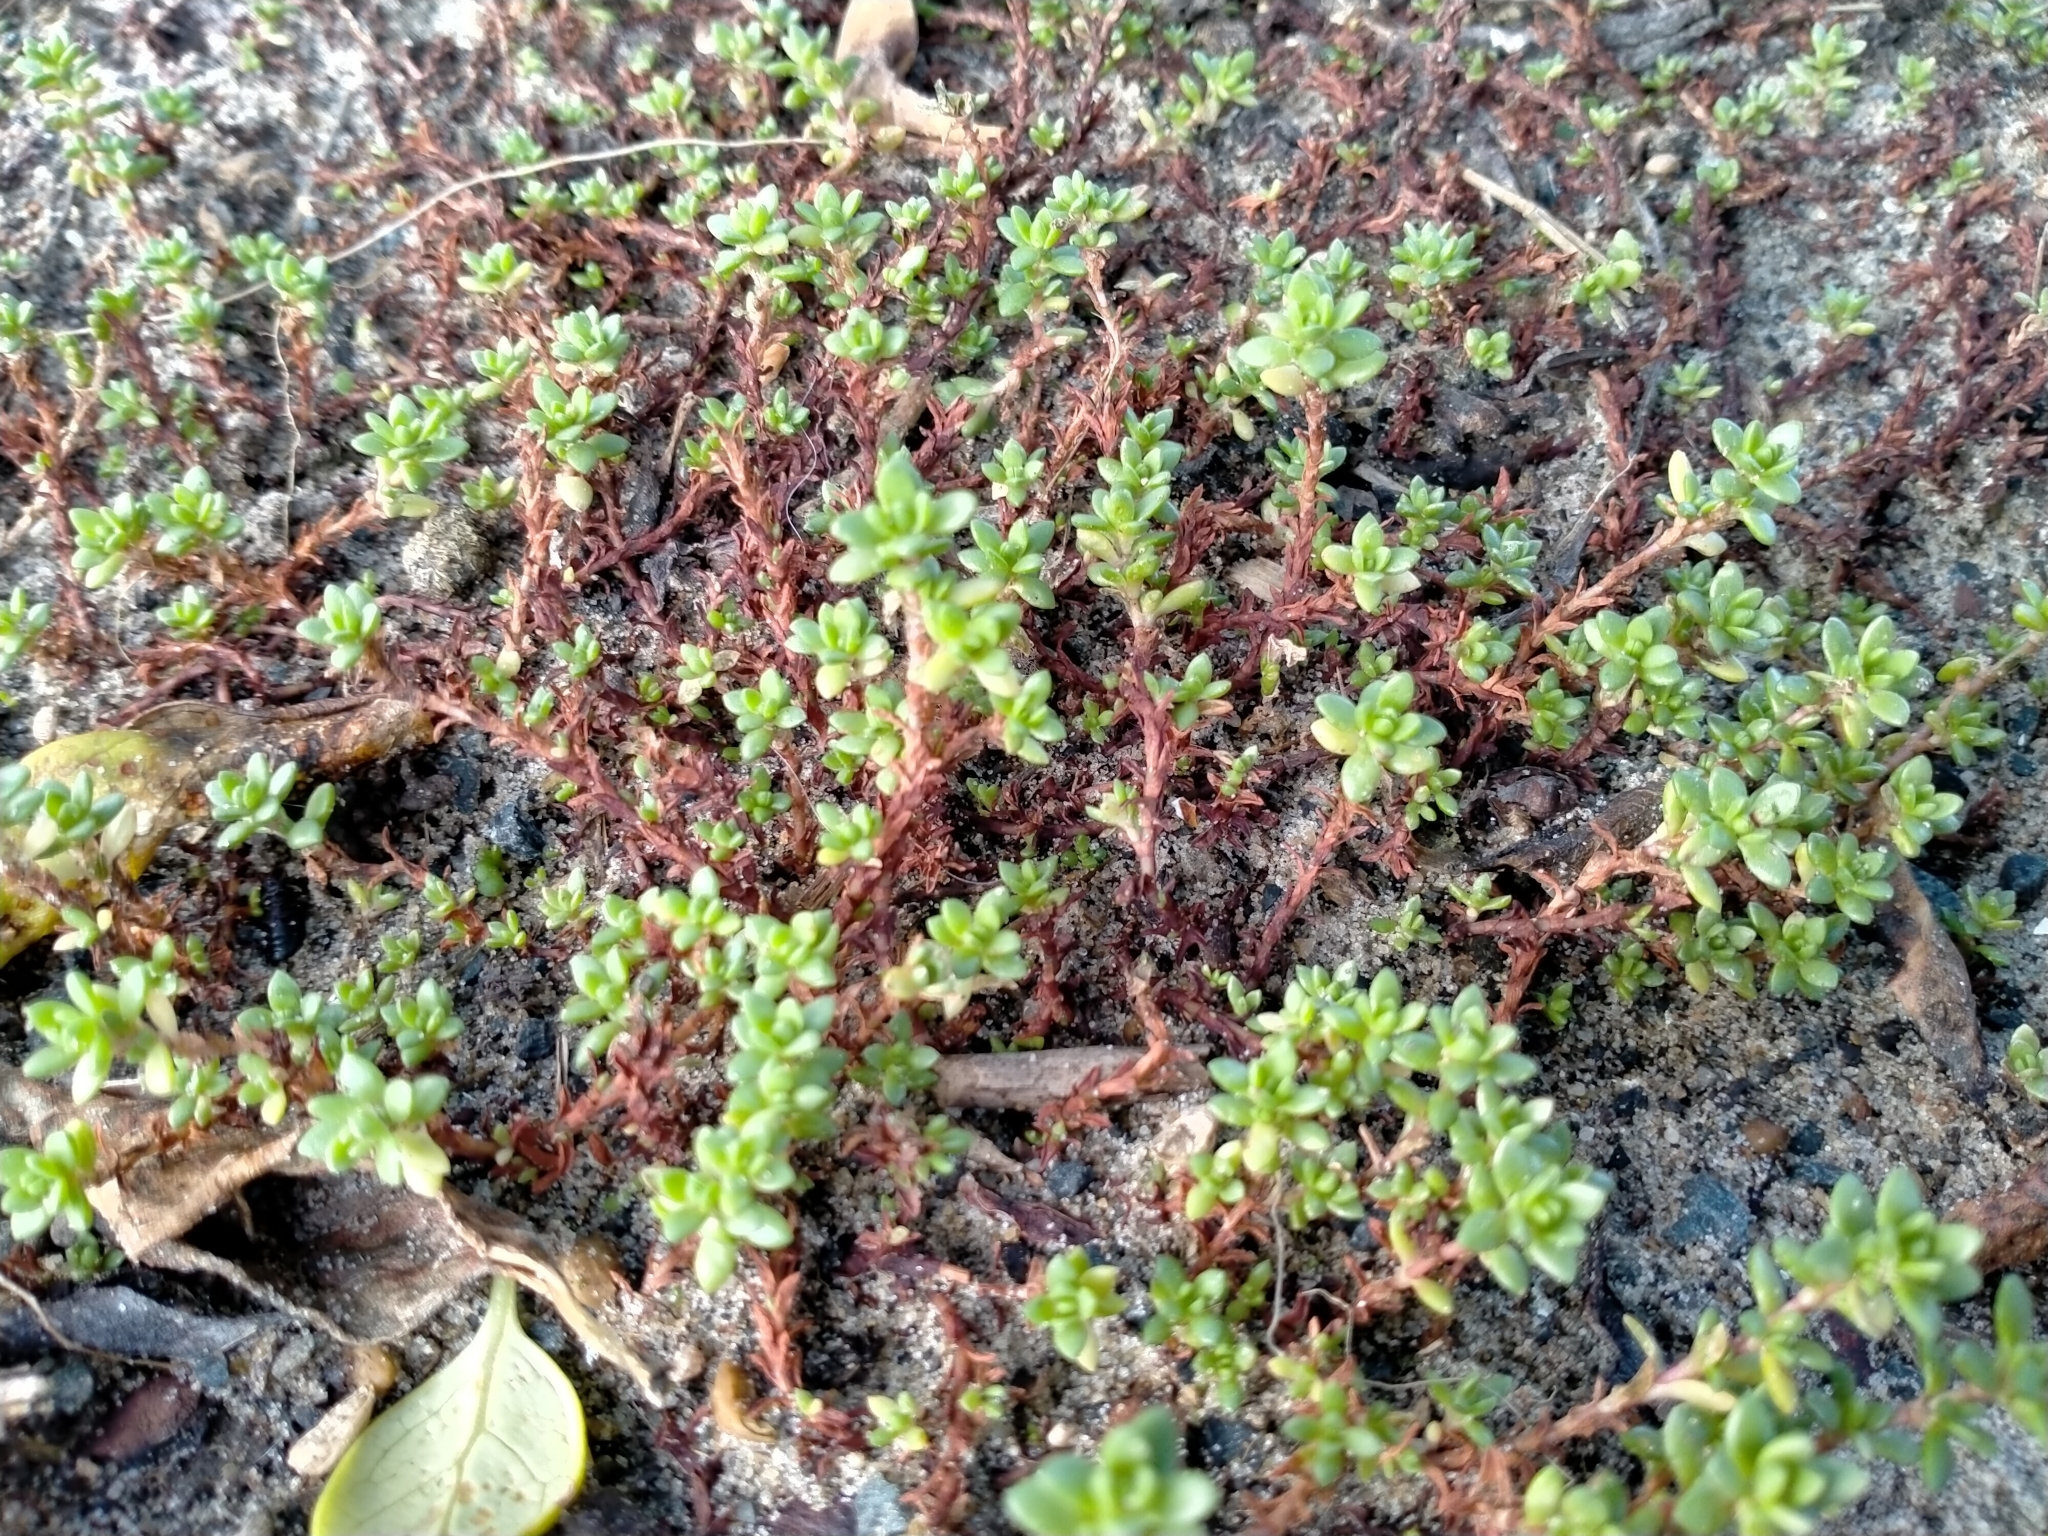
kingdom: Plantae
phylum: Tracheophyta
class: Magnoliopsida
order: Saxifragales
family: Crassulaceae
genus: Crassula
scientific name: Crassula moschata
